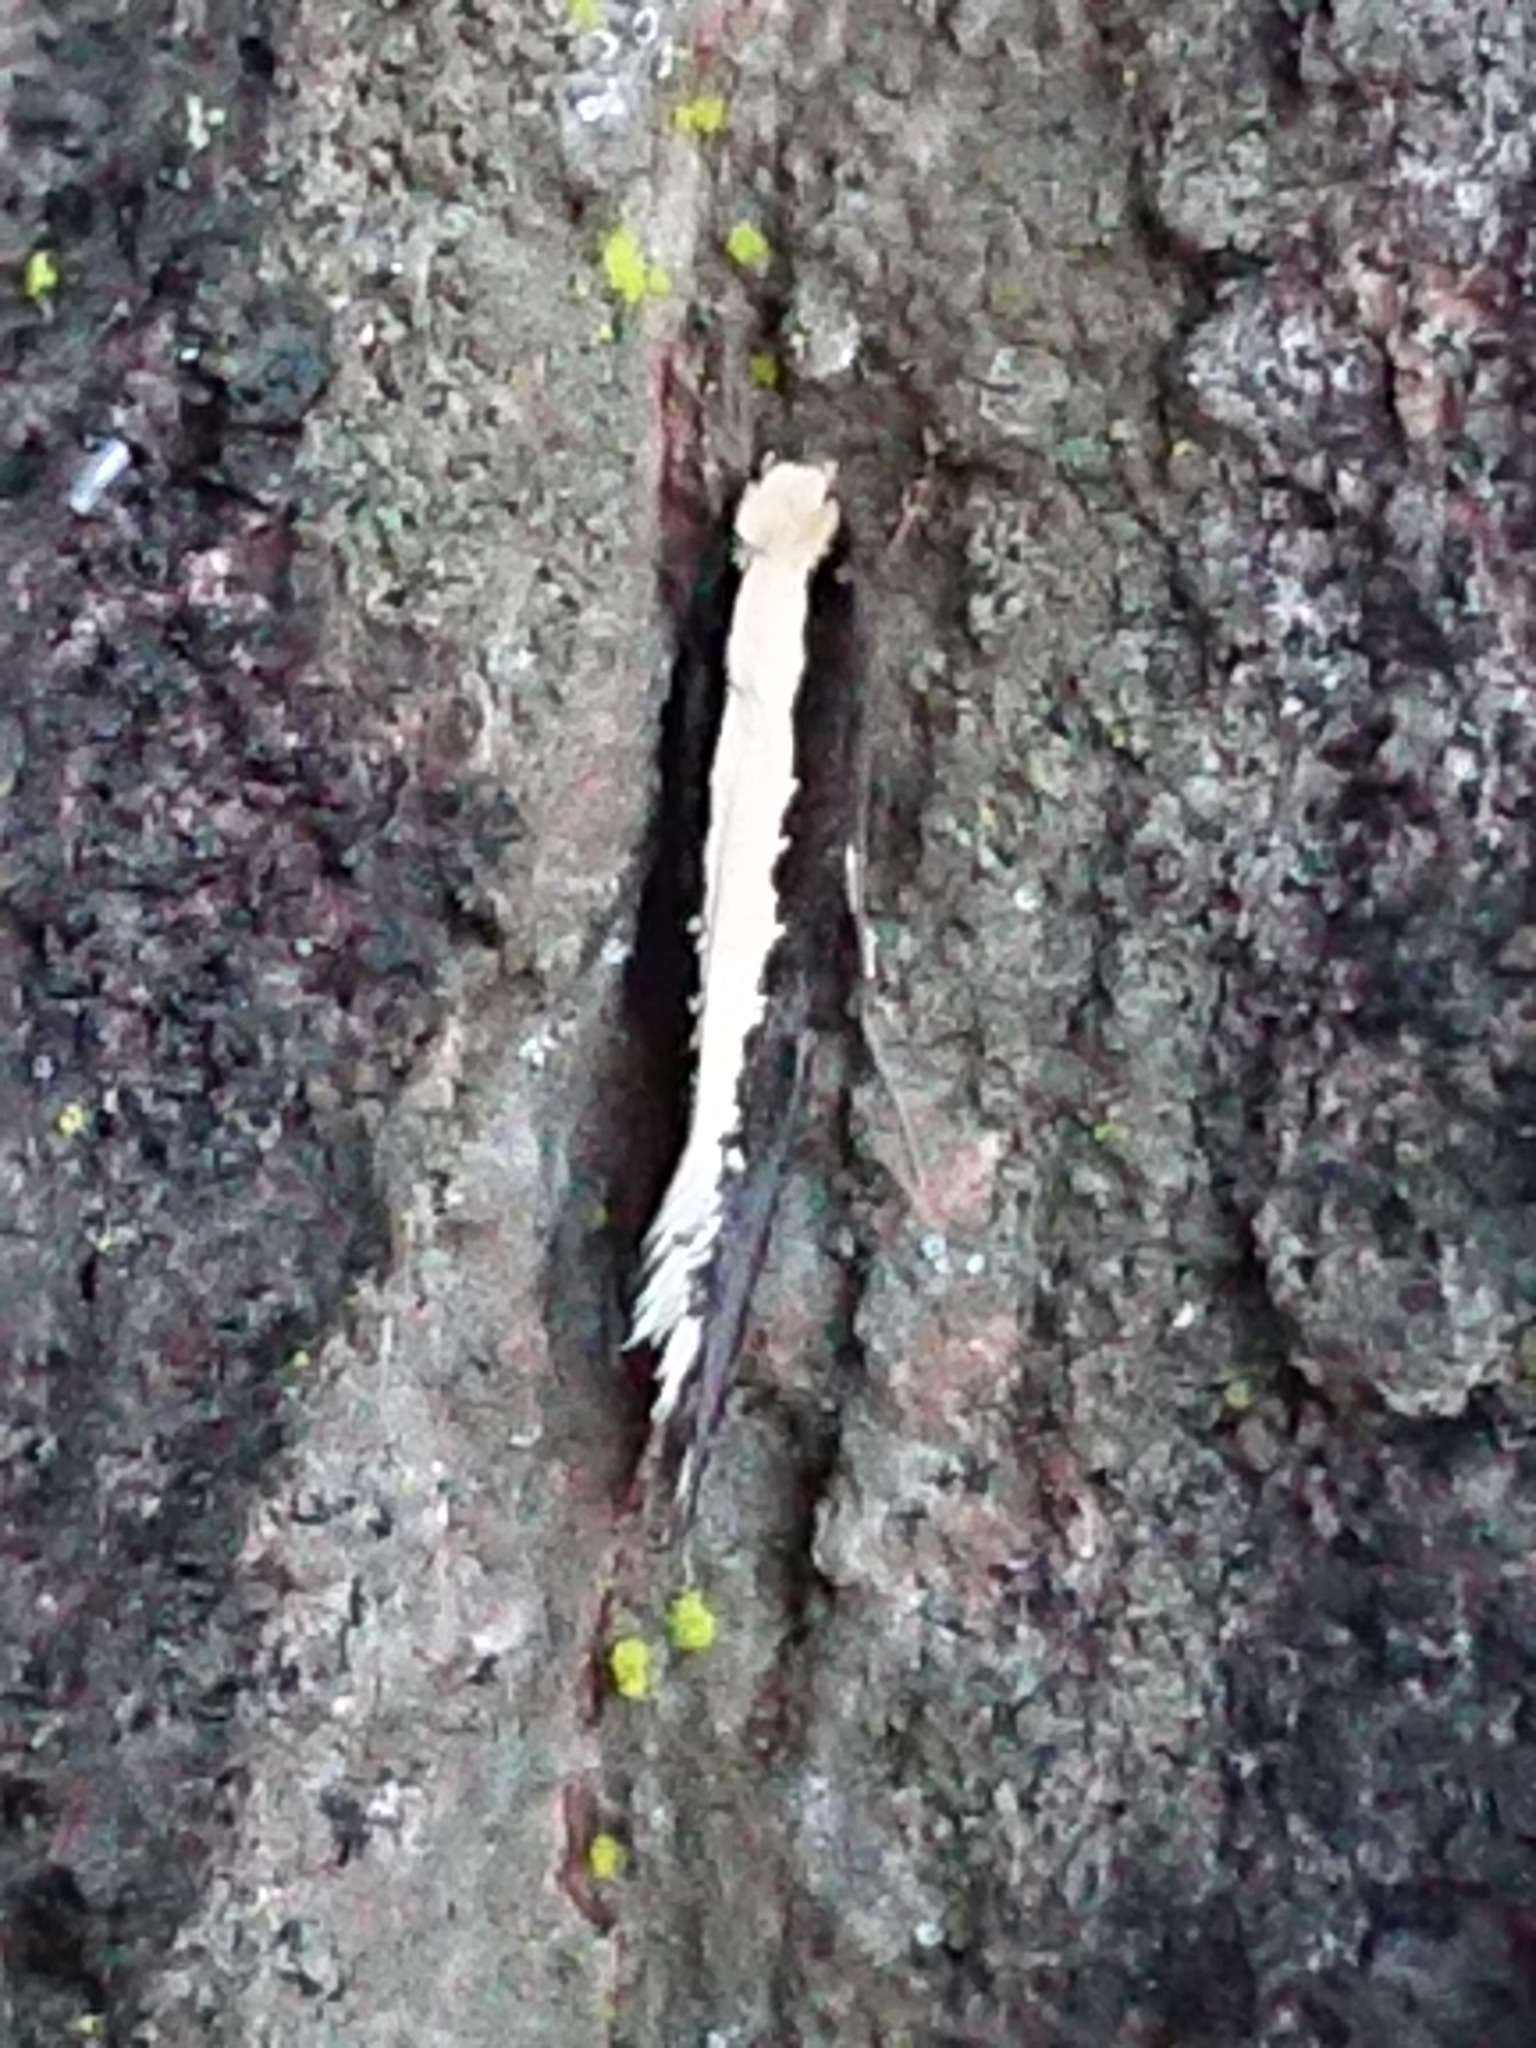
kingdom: Animalia
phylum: Arthropoda
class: Insecta
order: Lepidoptera
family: Tineidae
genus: Monopis
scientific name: Monopis ethelella
